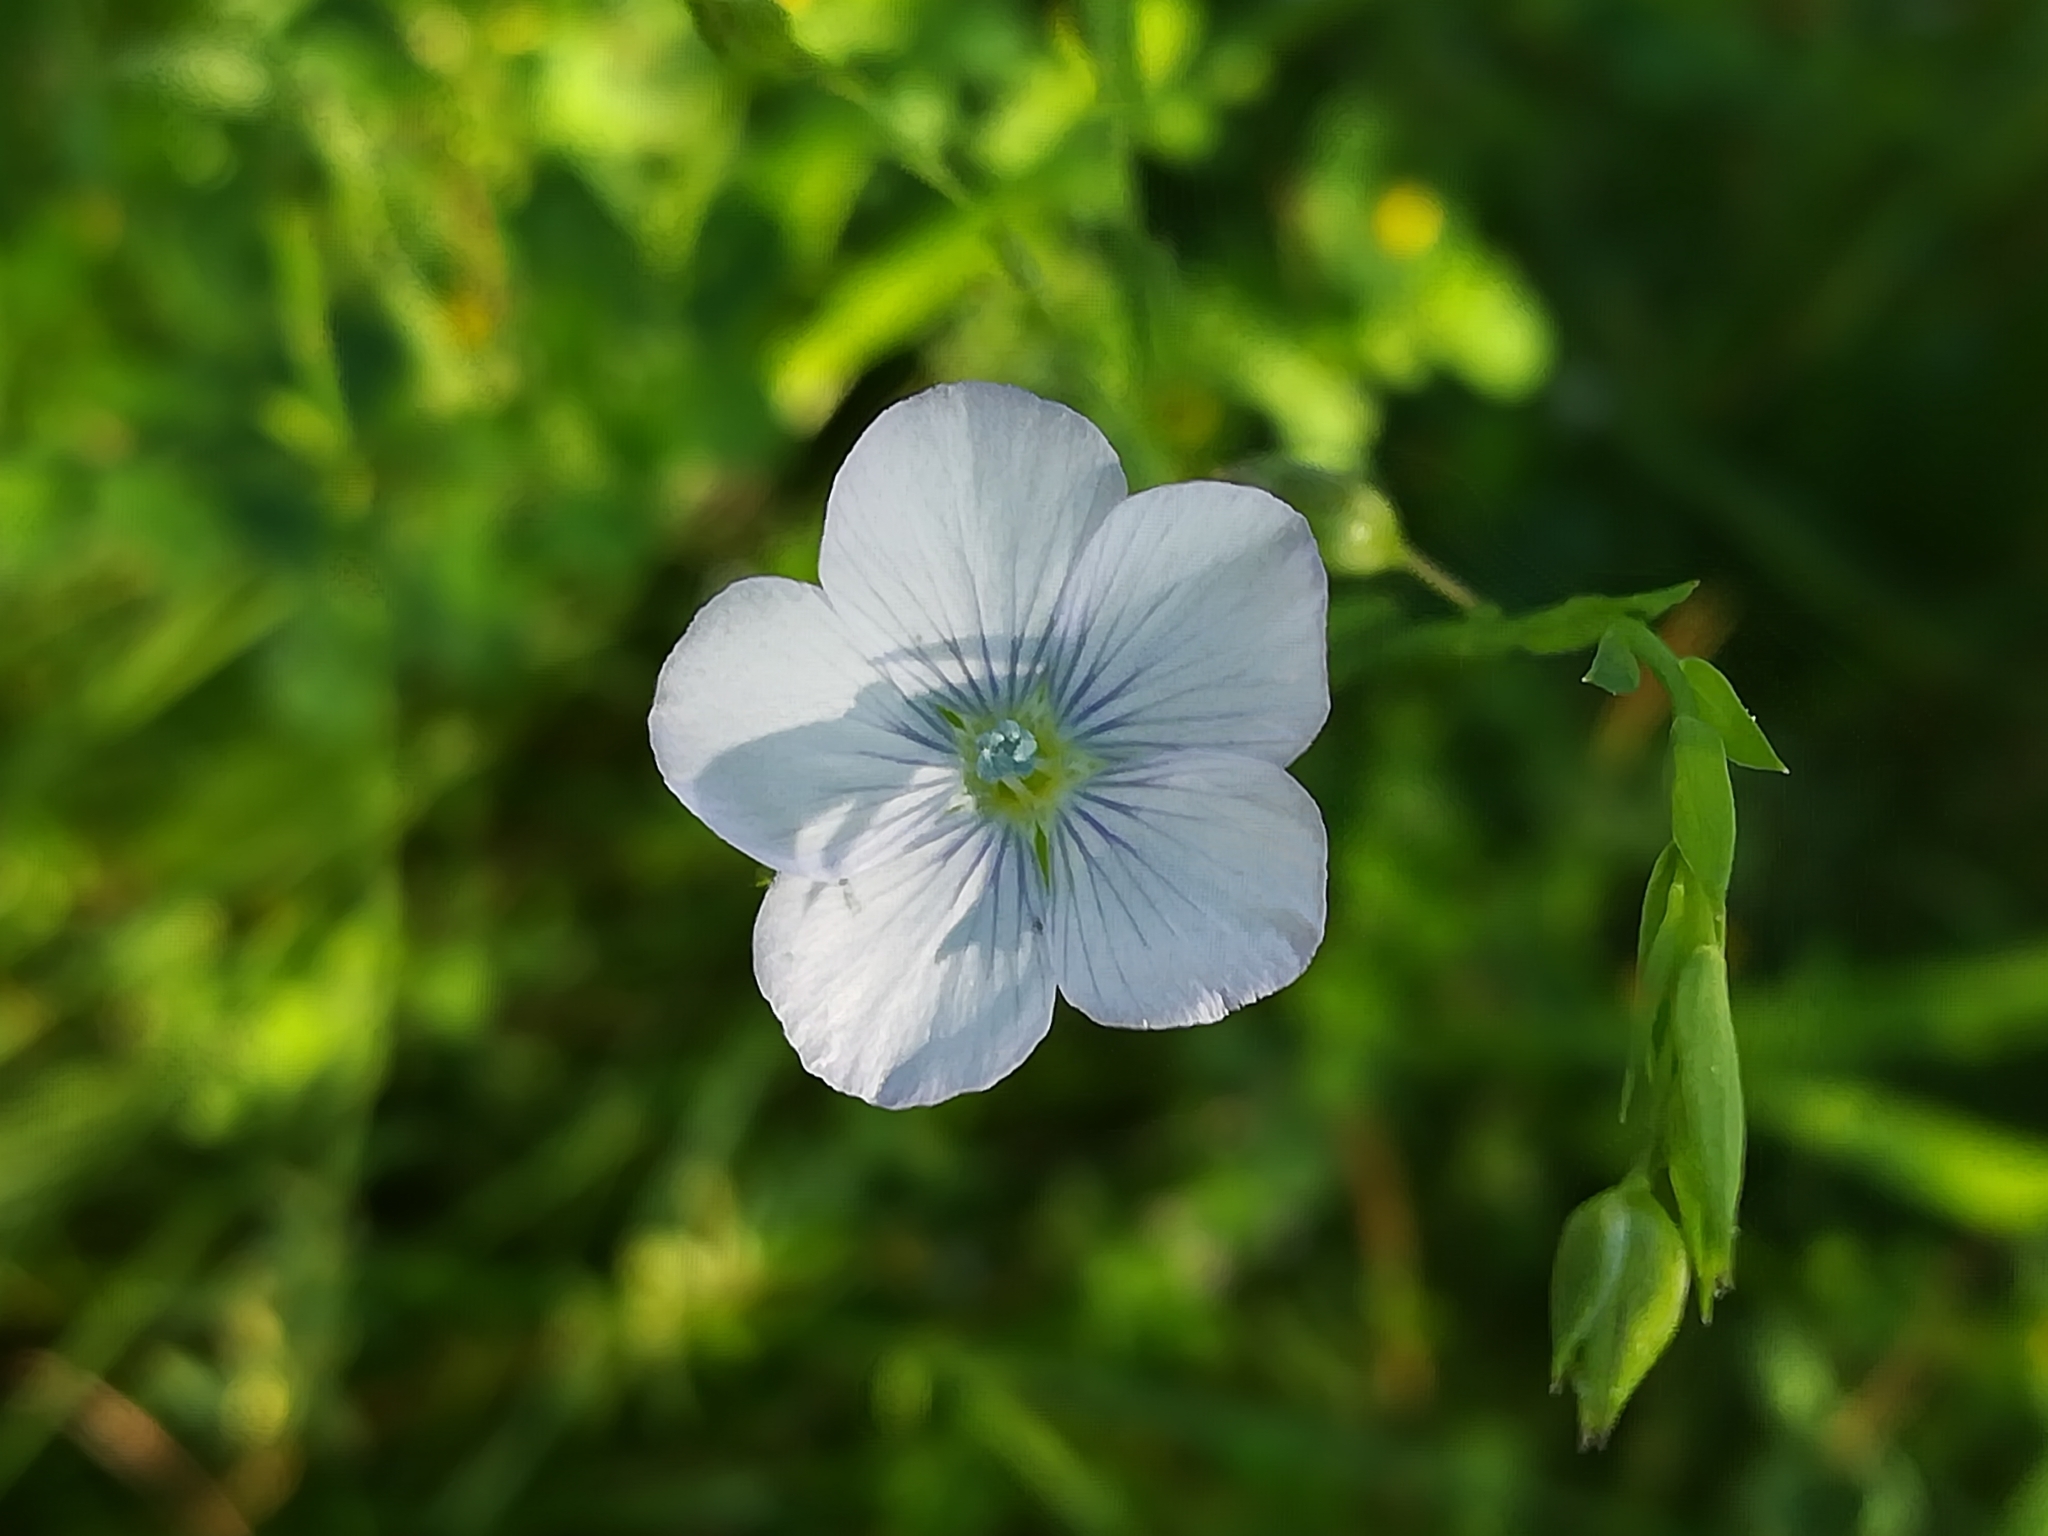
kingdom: Plantae
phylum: Tracheophyta
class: Magnoliopsida
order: Malpighiales
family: Linaceae
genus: Linum
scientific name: Linum bienne
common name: Pale flax
